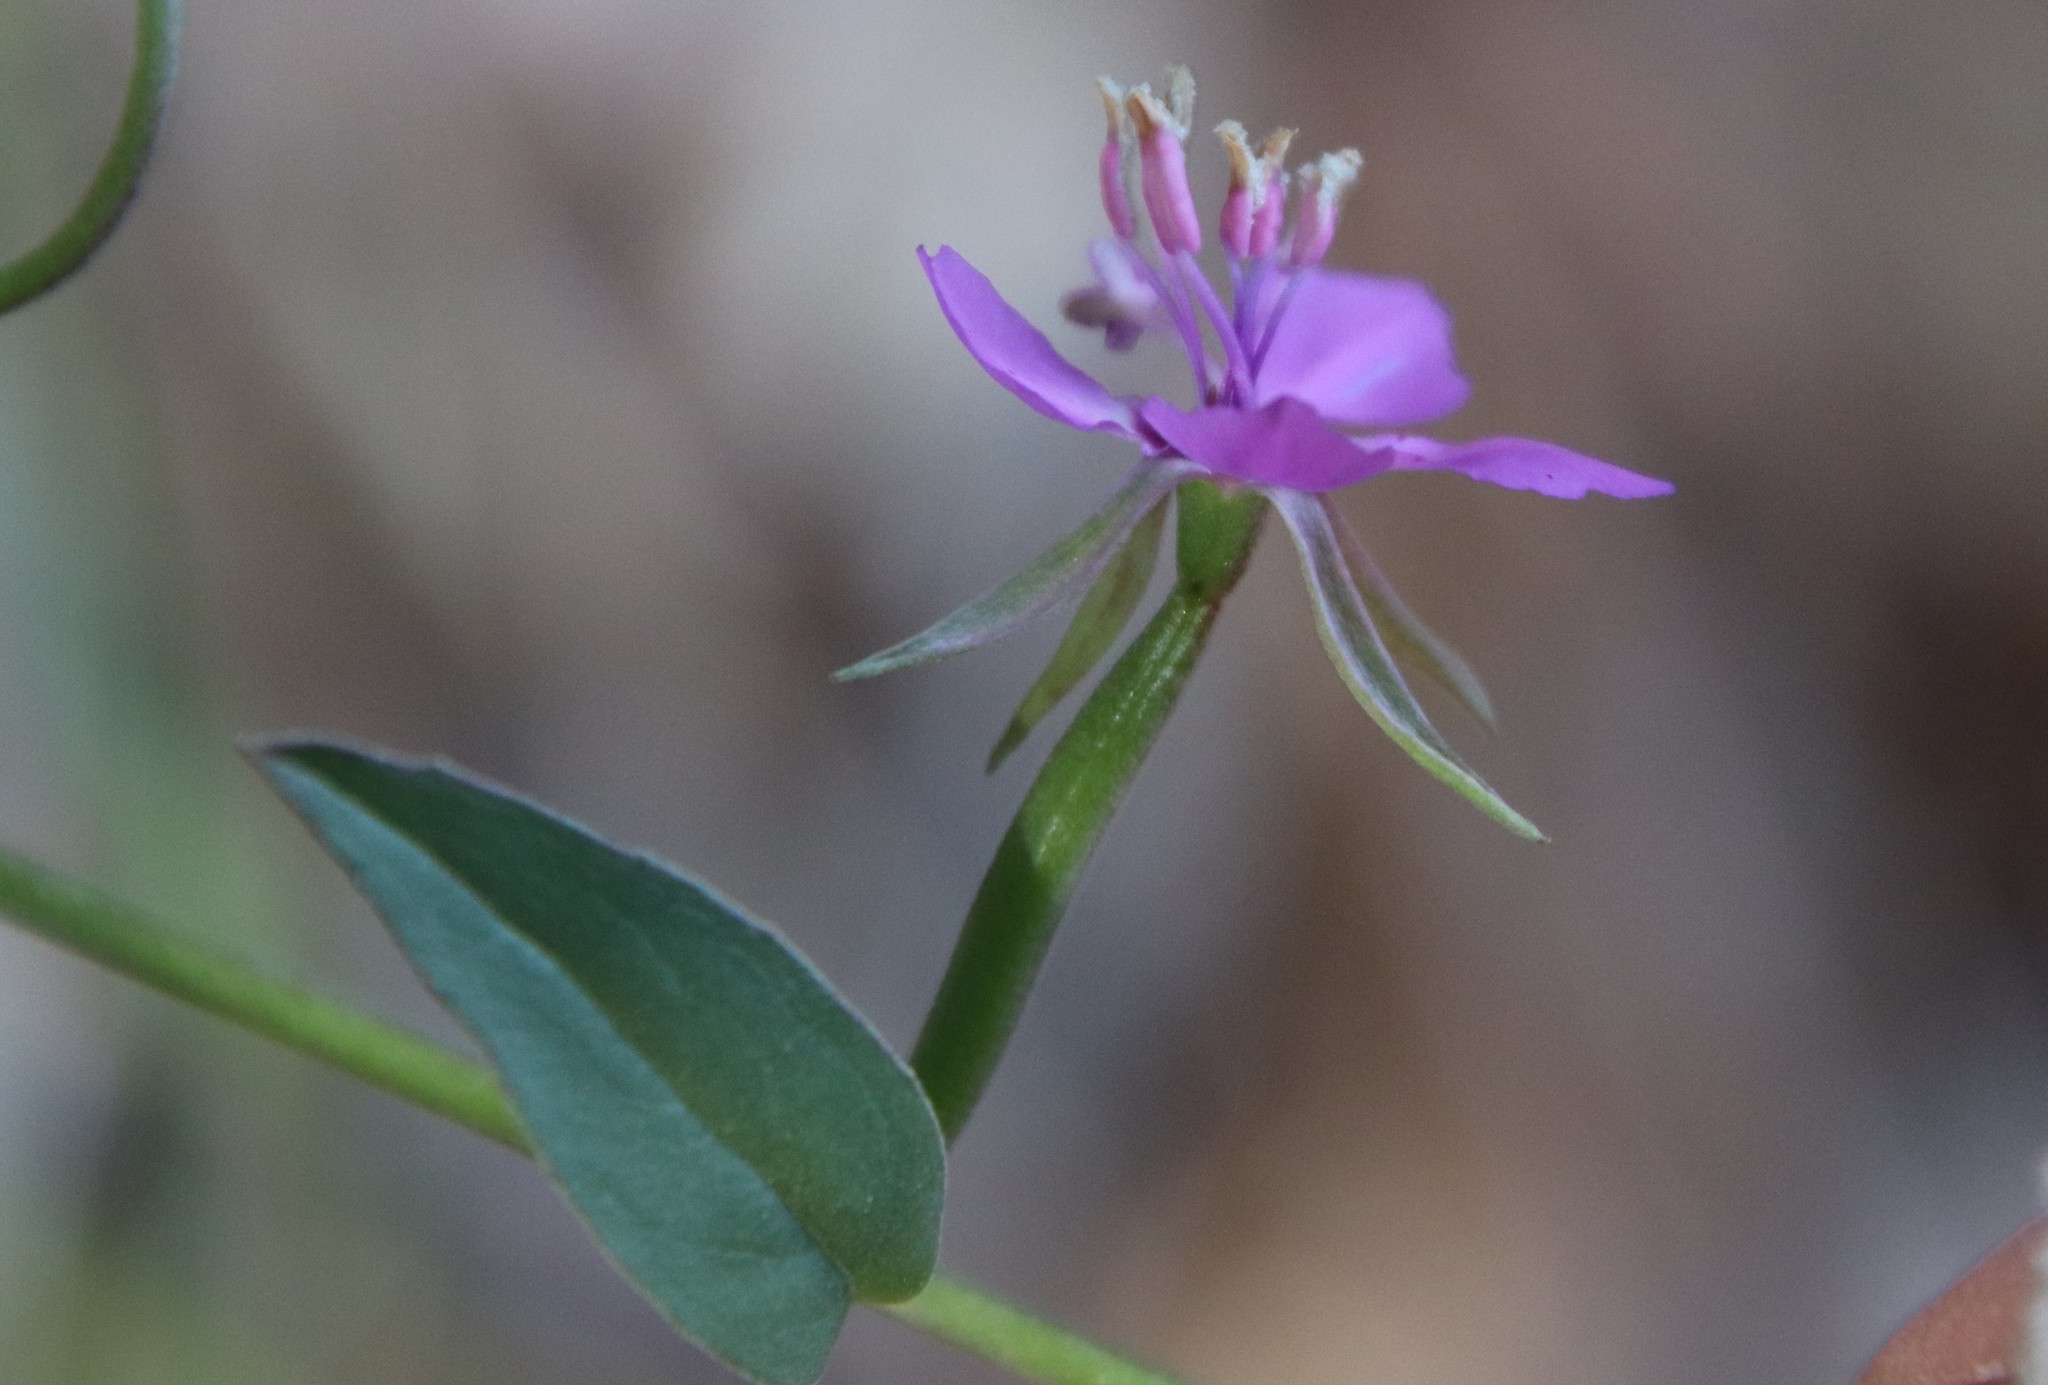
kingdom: Plantae
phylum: Tracheophyta
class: Magnoliopsida
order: Myrtales
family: Onagraceae
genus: Clarkia
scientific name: Clarkia rhomboidea
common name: Broadleaf clarkia
